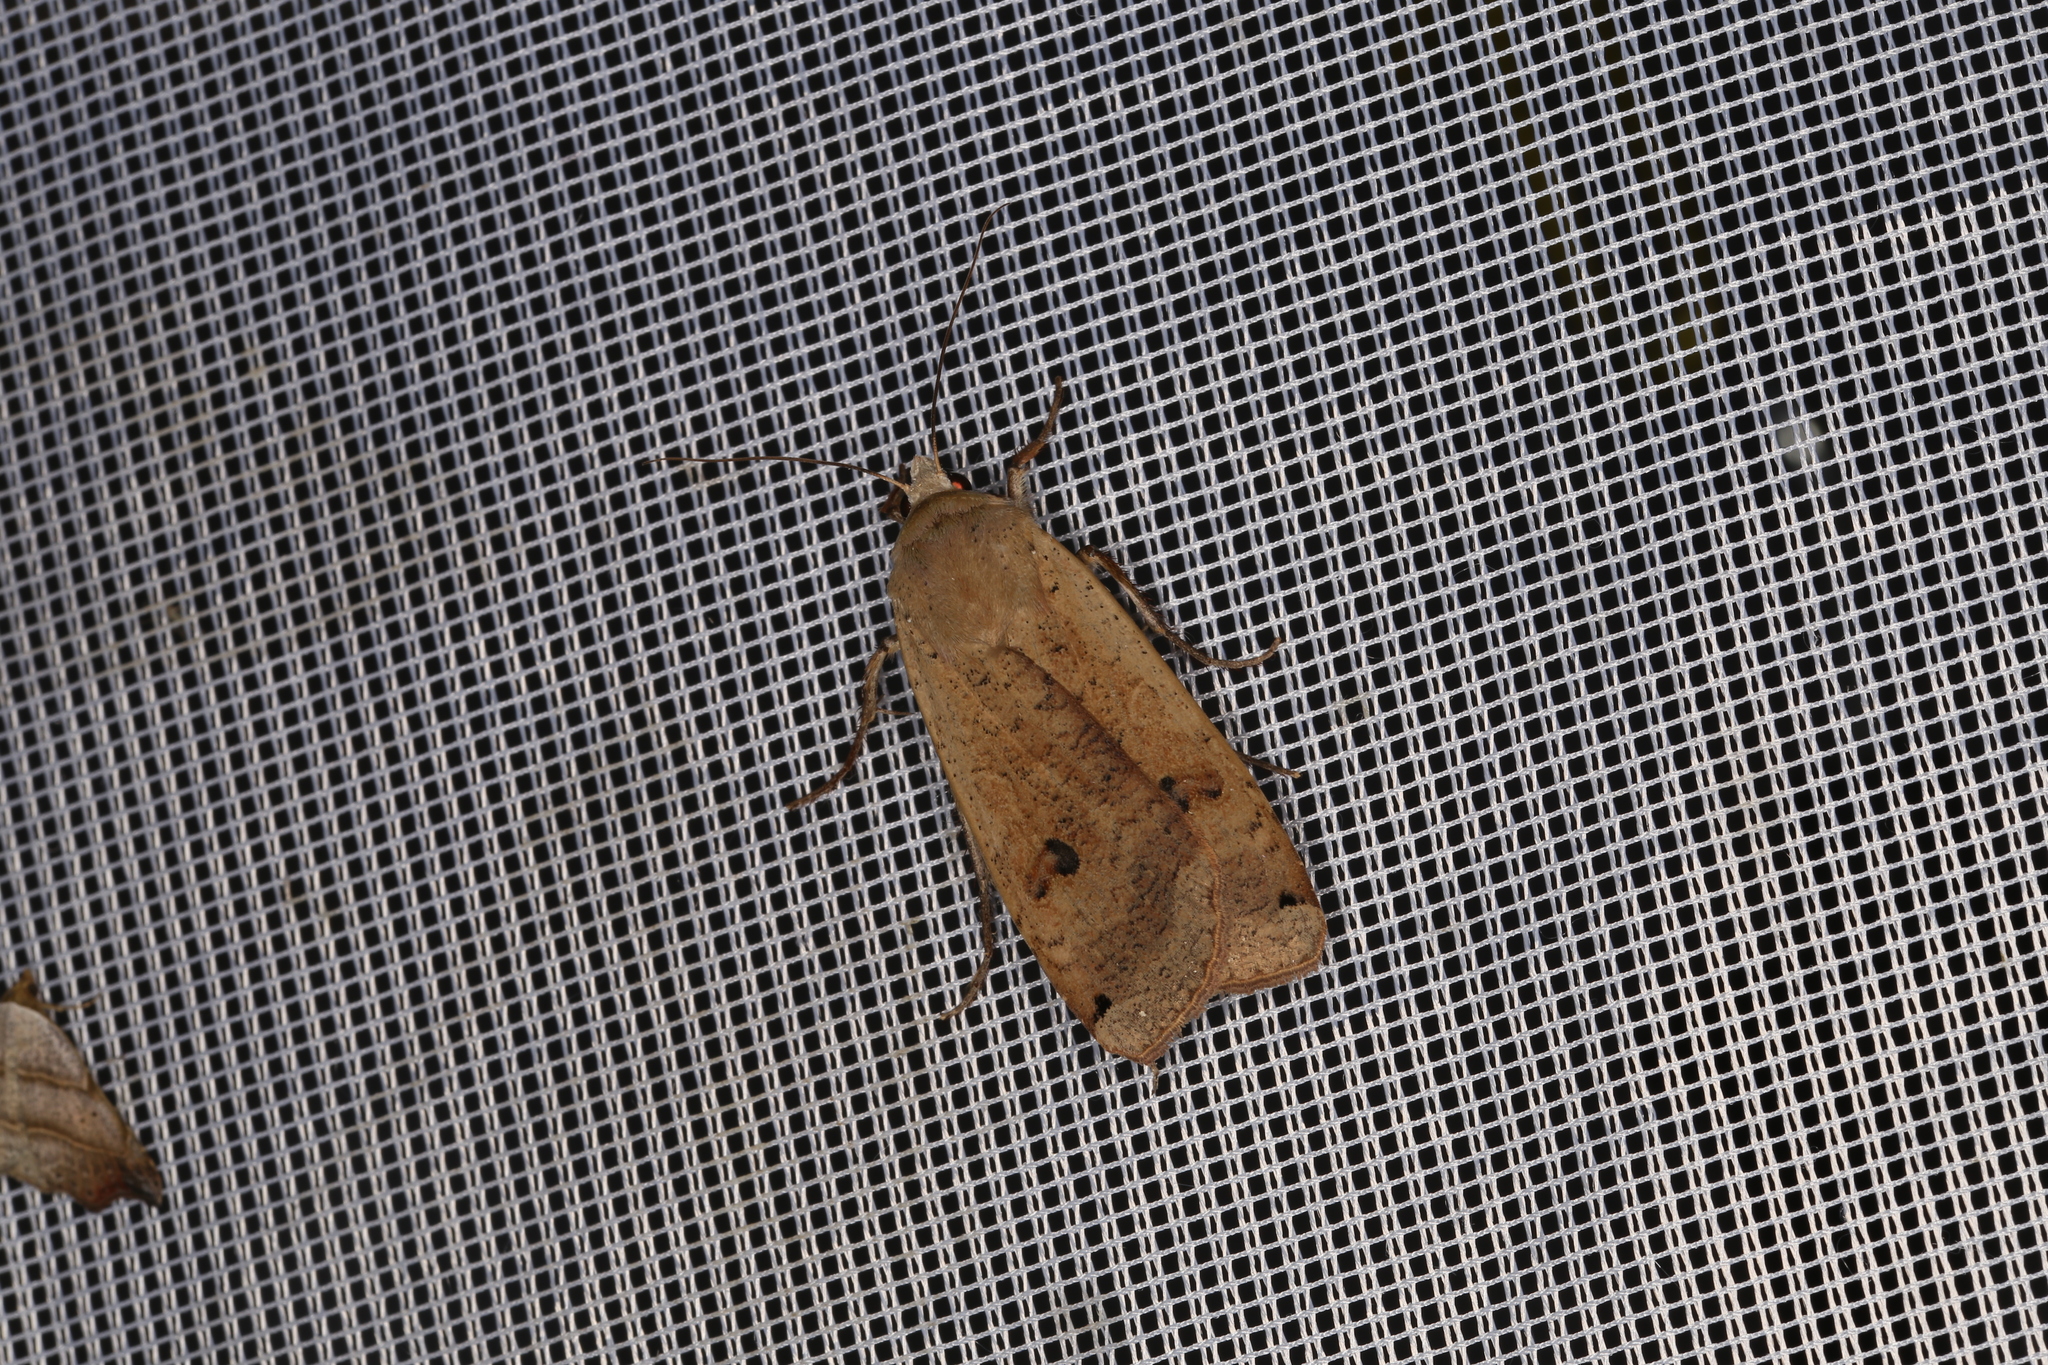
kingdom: Animalia
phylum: Arthropoda
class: Insecta
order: Lepidoptera
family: Noctuidae
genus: Noctua
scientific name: Noctua pronuba
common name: Large yellow underwing
